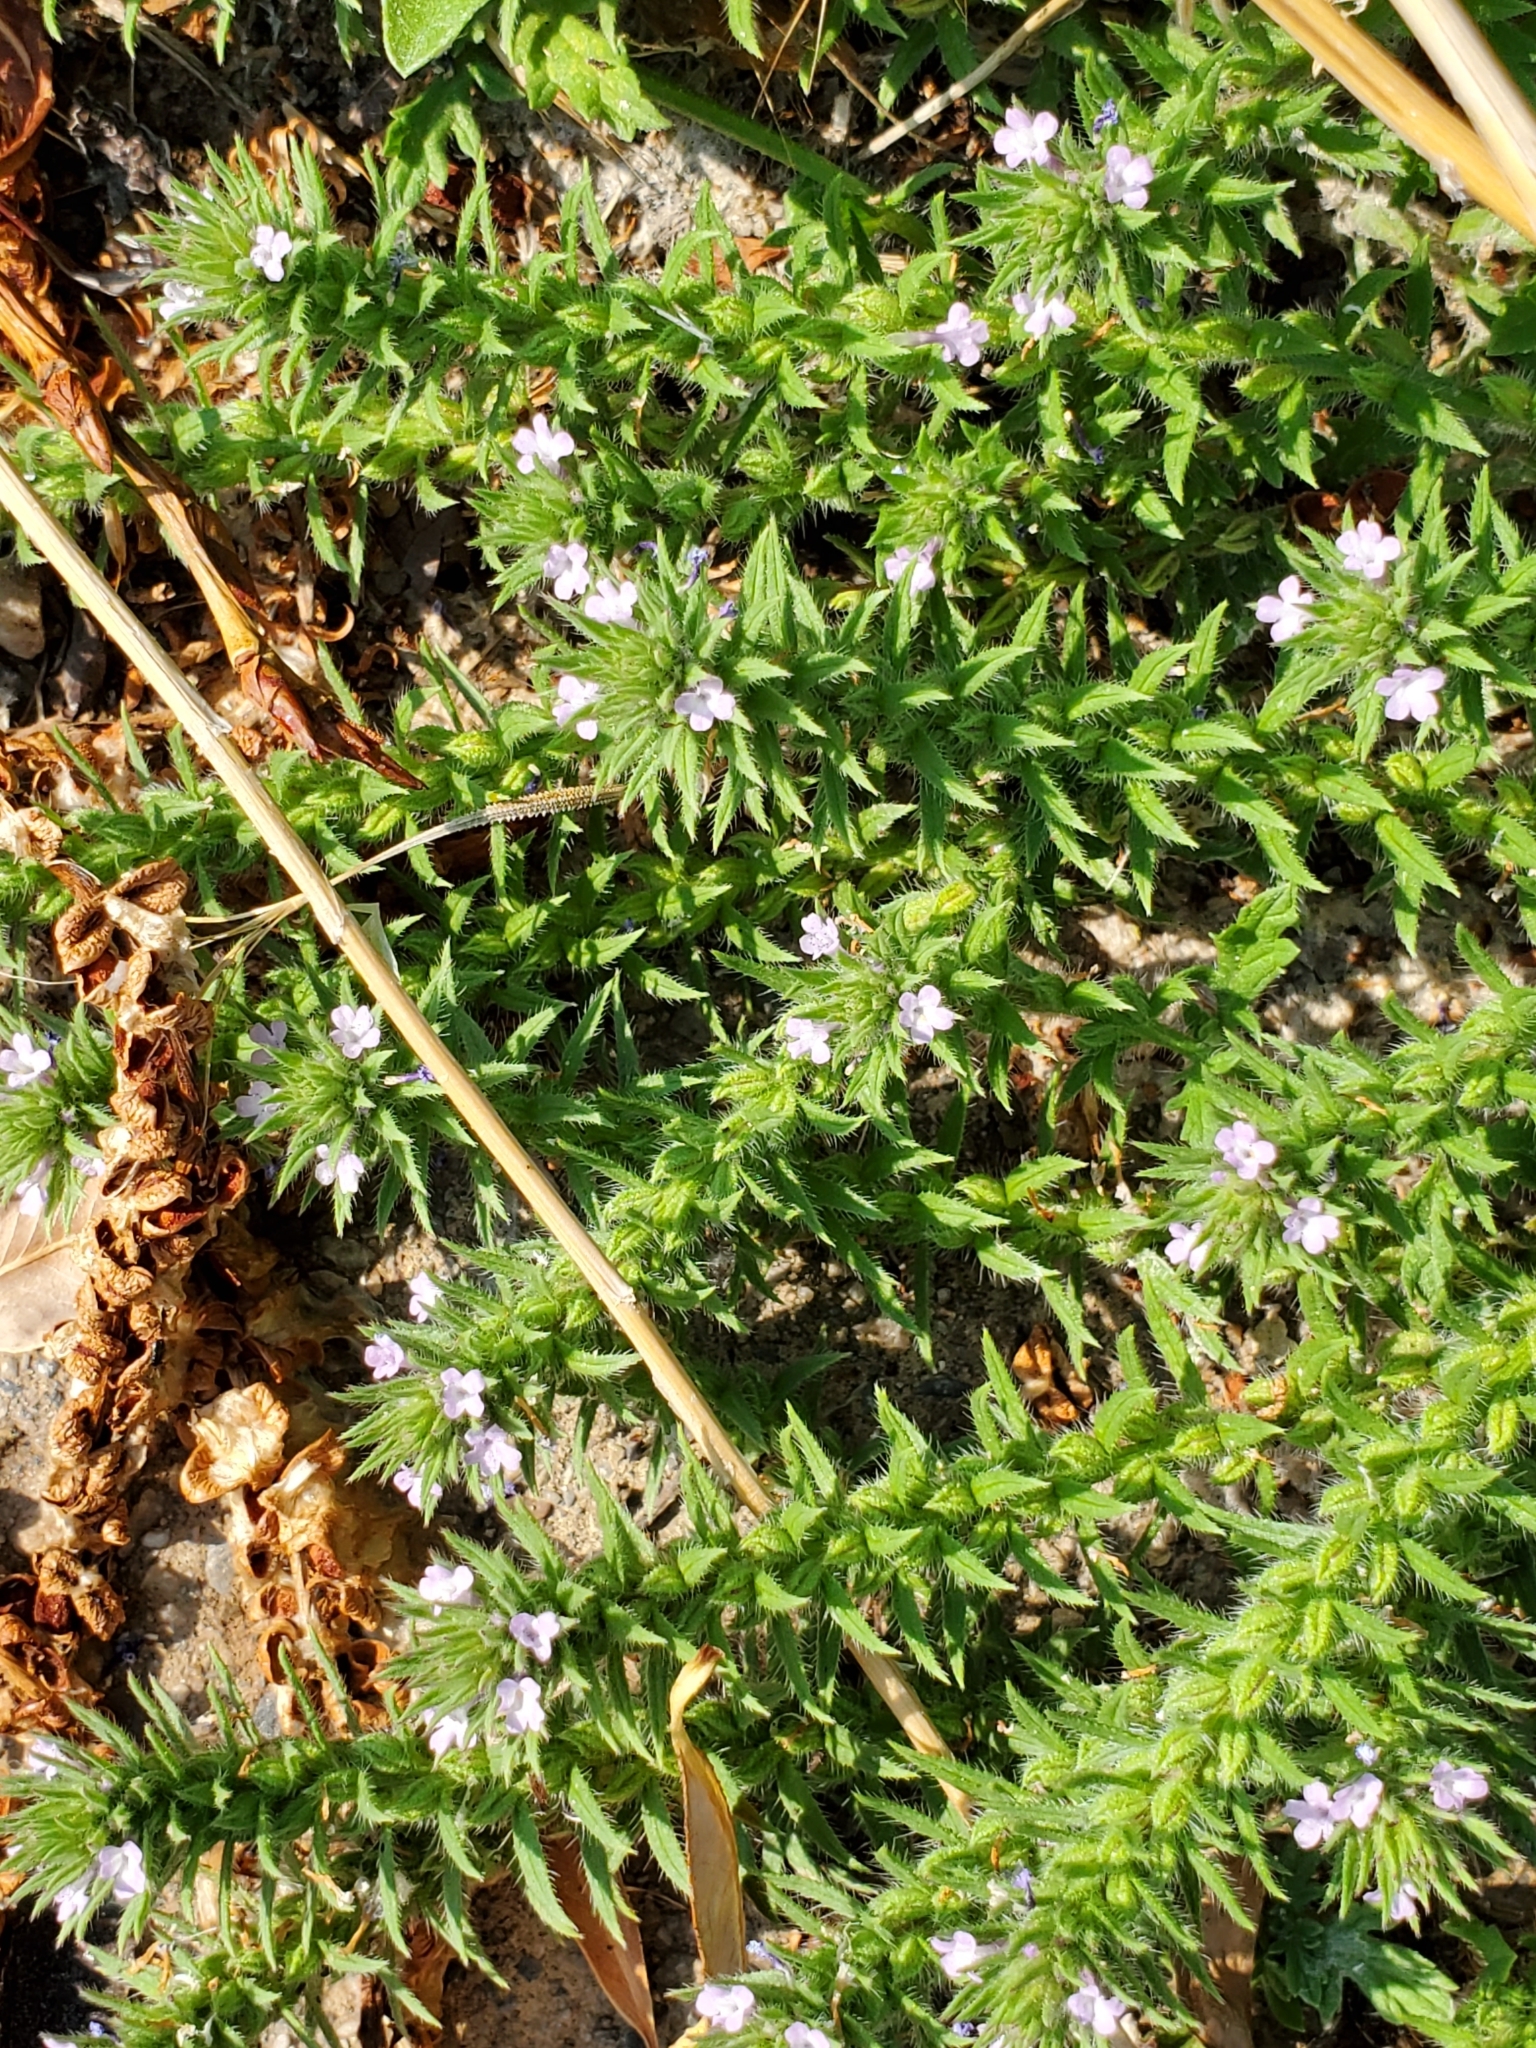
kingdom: Plantae
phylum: Tracheophyta
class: Magnoliopsida
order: Lamiales
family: Verbenaceae
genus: Verbena
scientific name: Verbena bracteata
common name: Bracted vervain
